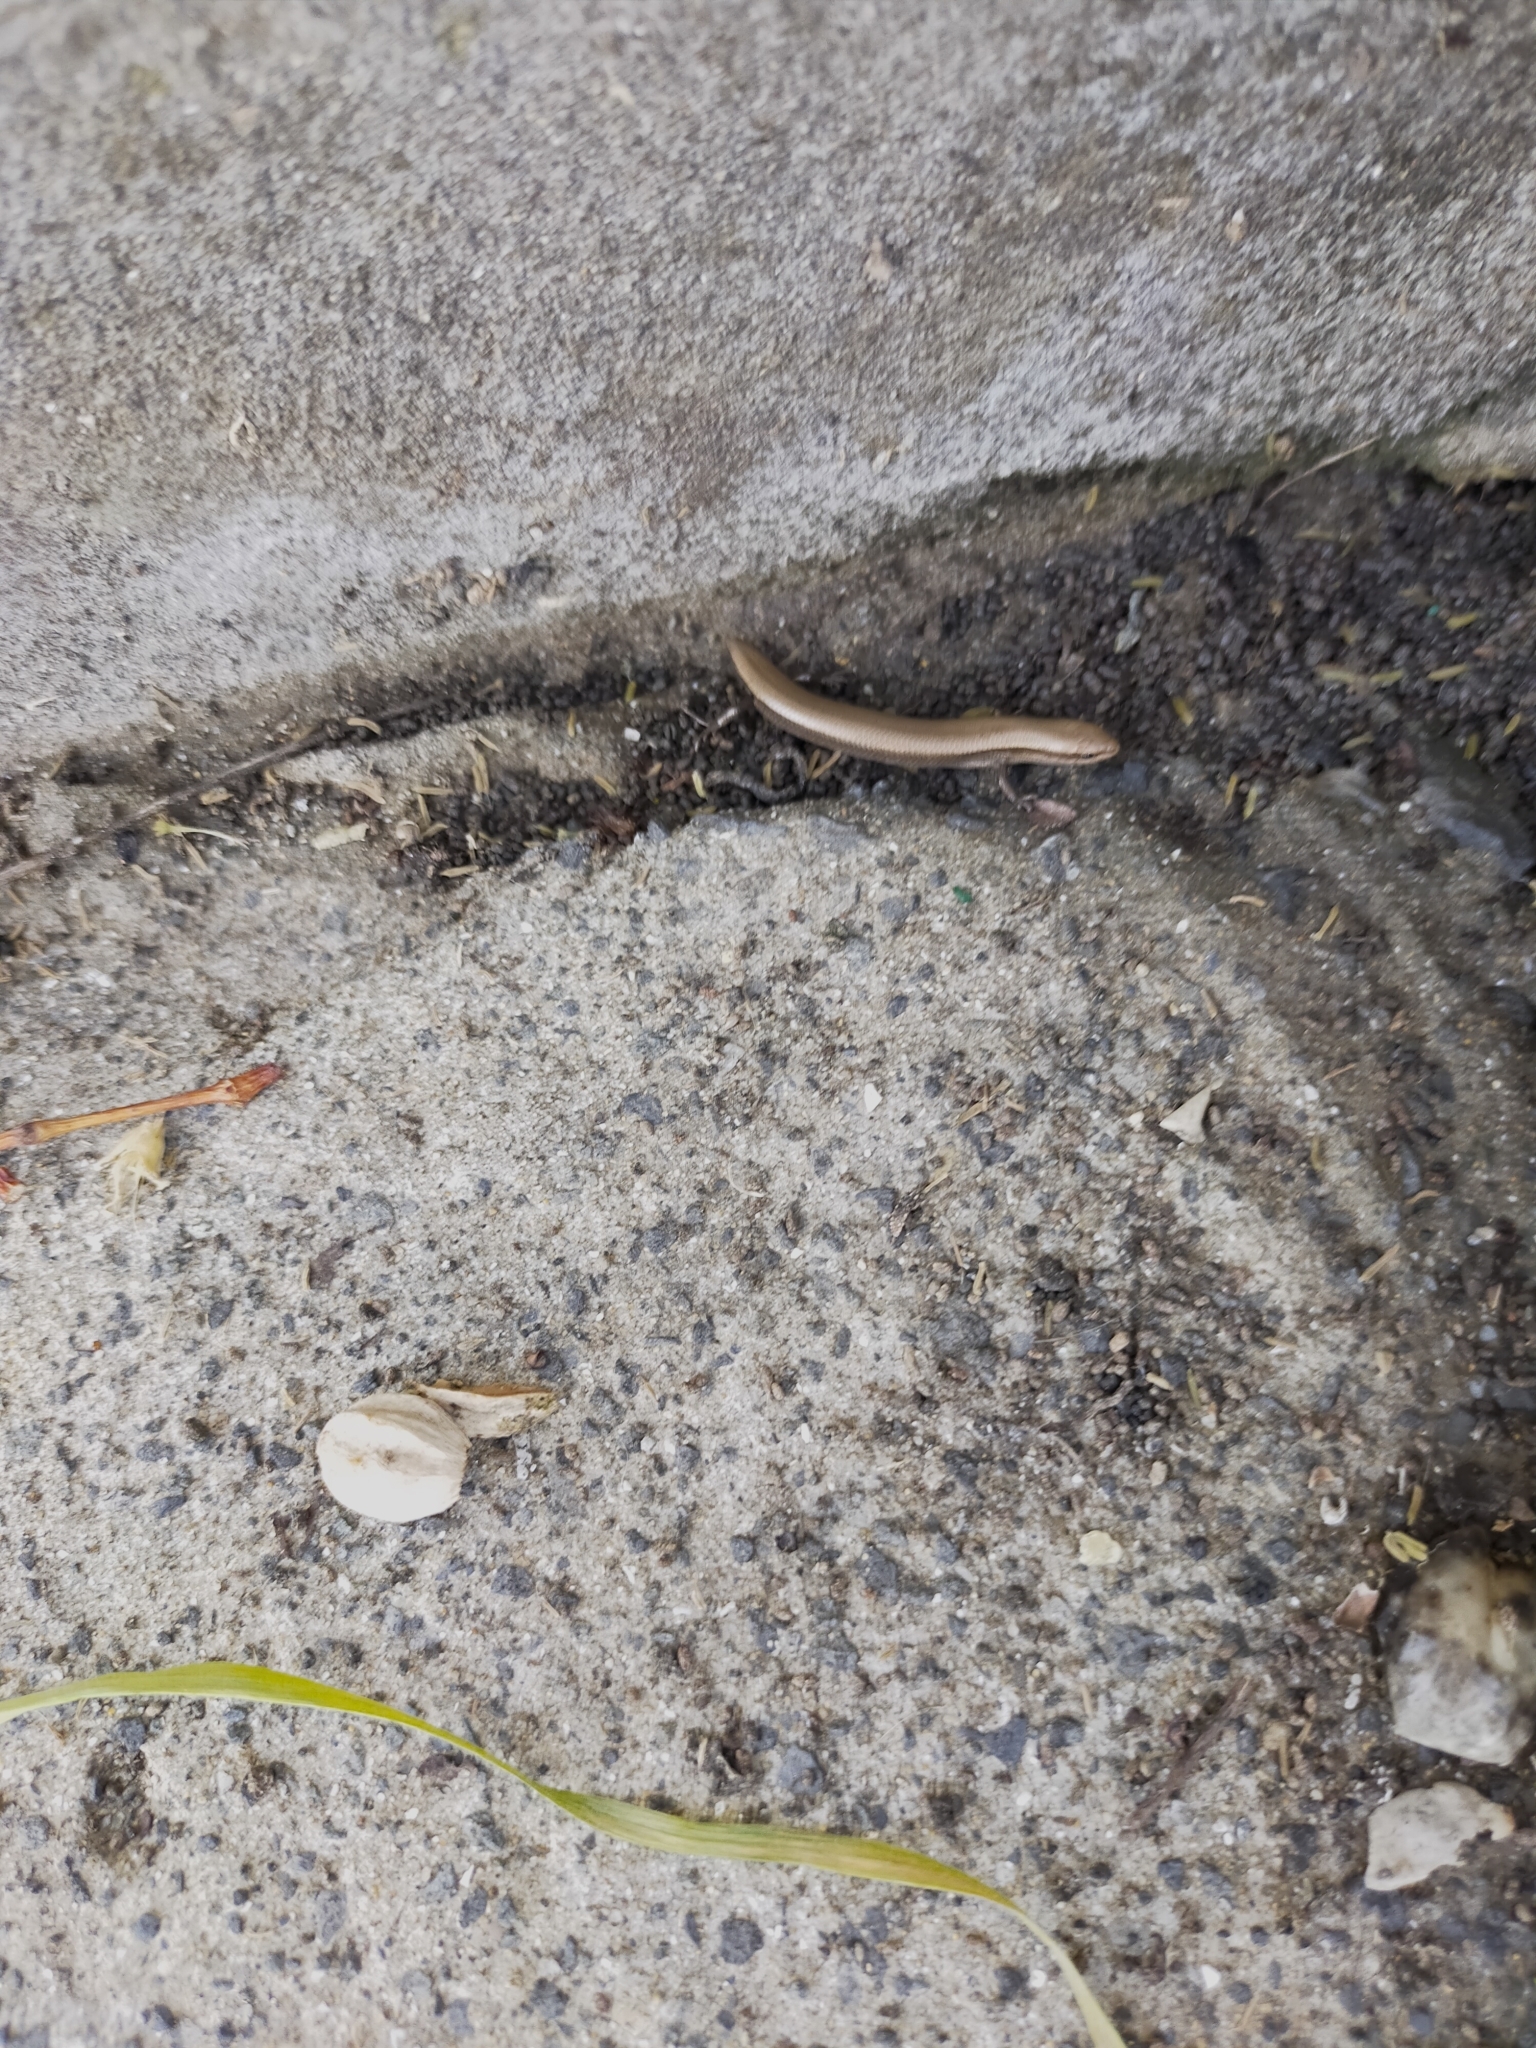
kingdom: Animalia
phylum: Chordata
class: Squamata
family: Scincidae
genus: Ablepharus
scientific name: Ablepharus kitaibelii
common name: Juniper skink
